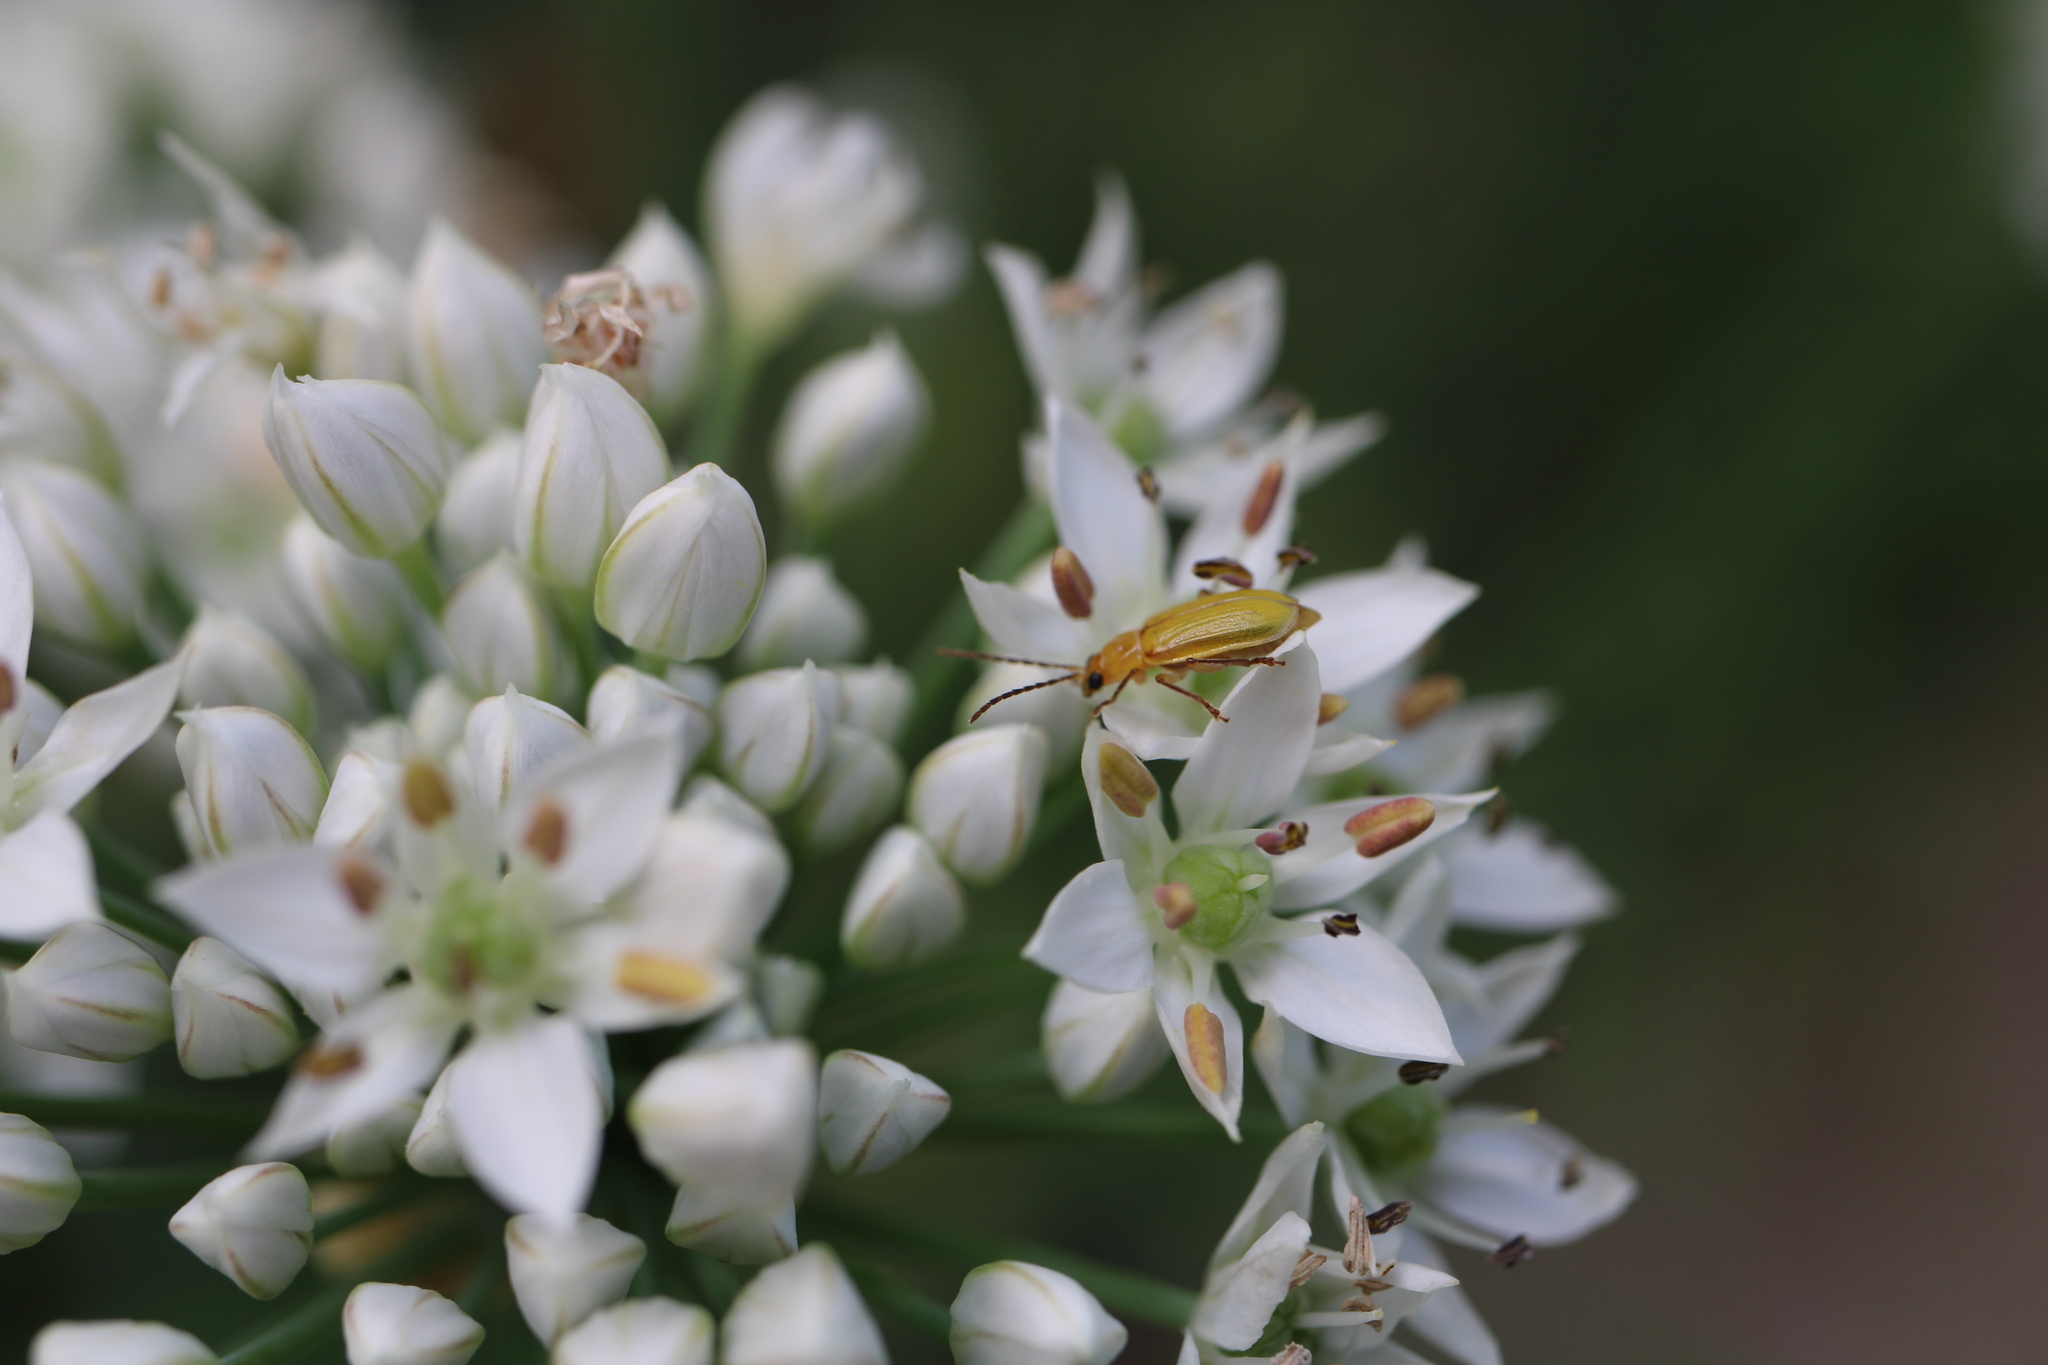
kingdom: Animalia
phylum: Arthropoda
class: Insecta
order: Coleoptera
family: Chrysomelidae
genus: Diabrotica
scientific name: Diabrotica barberi
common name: Northern corn rootworm
